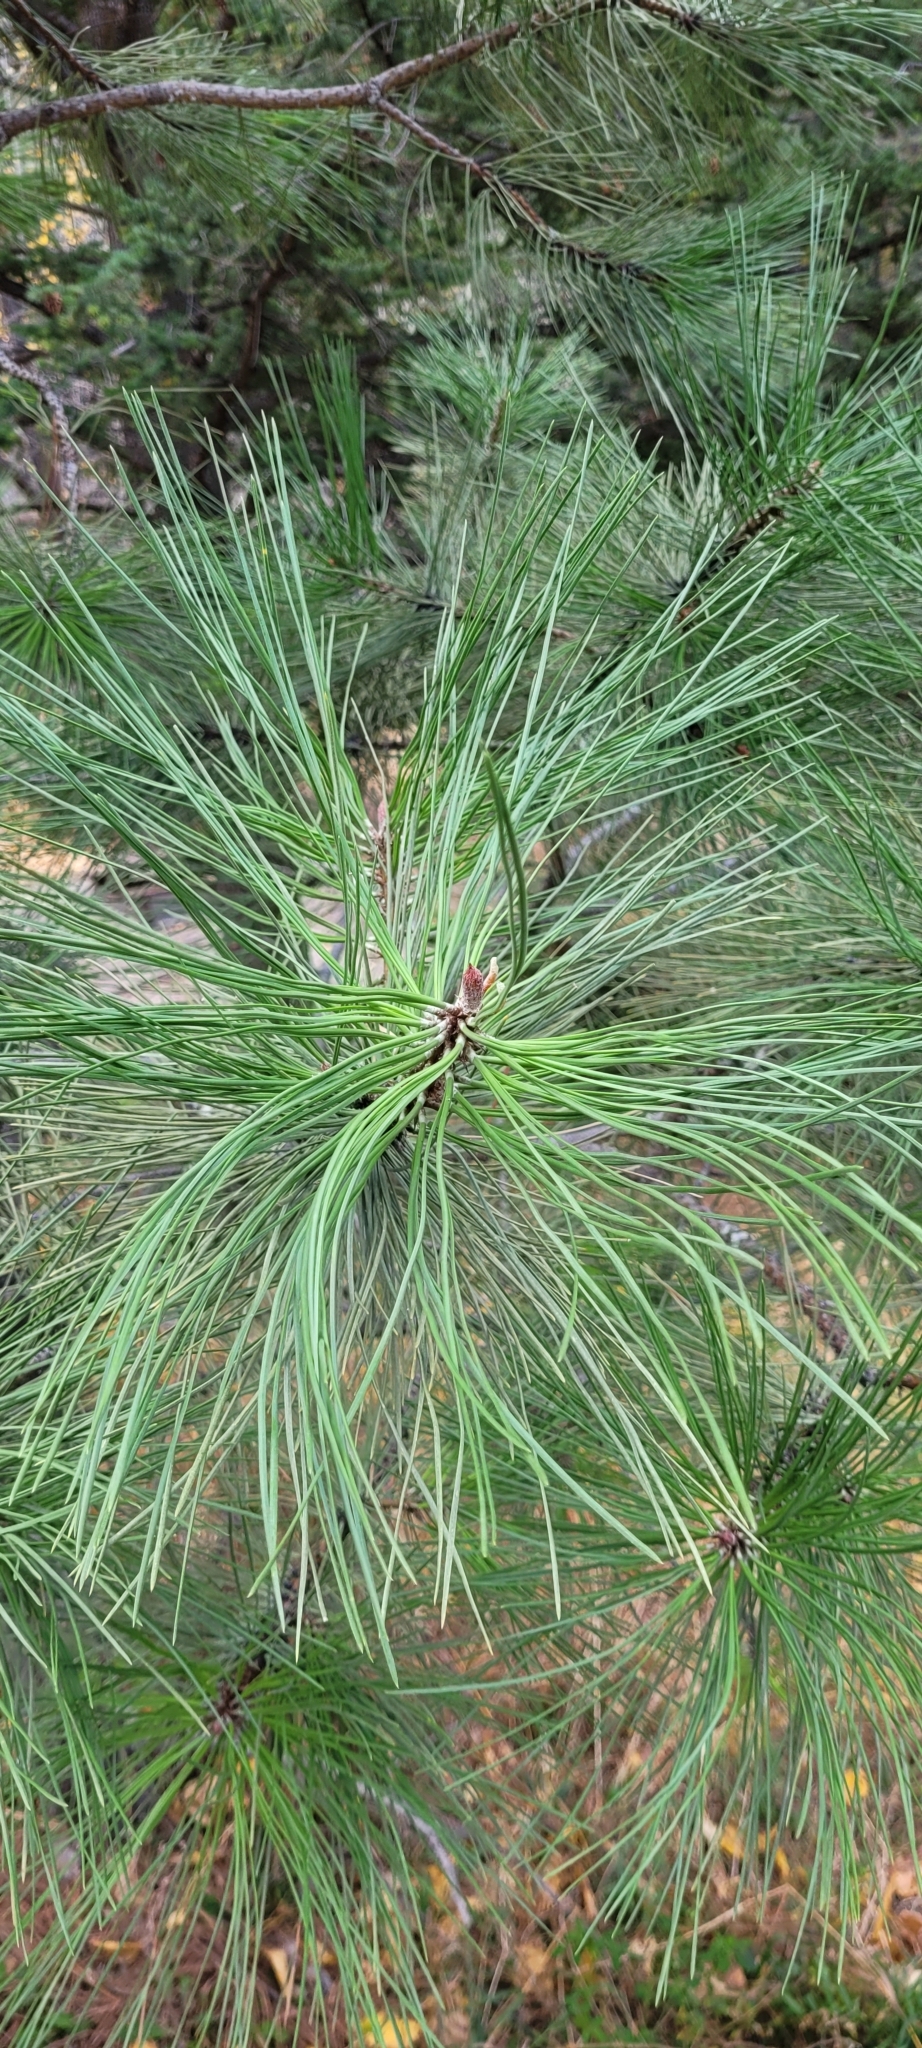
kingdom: Plantae
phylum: Tracheophyta
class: Pinopsida
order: Pinales
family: Pinaceae
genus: Pinus
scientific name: Pinus ponderosa
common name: Western yellow-pine
